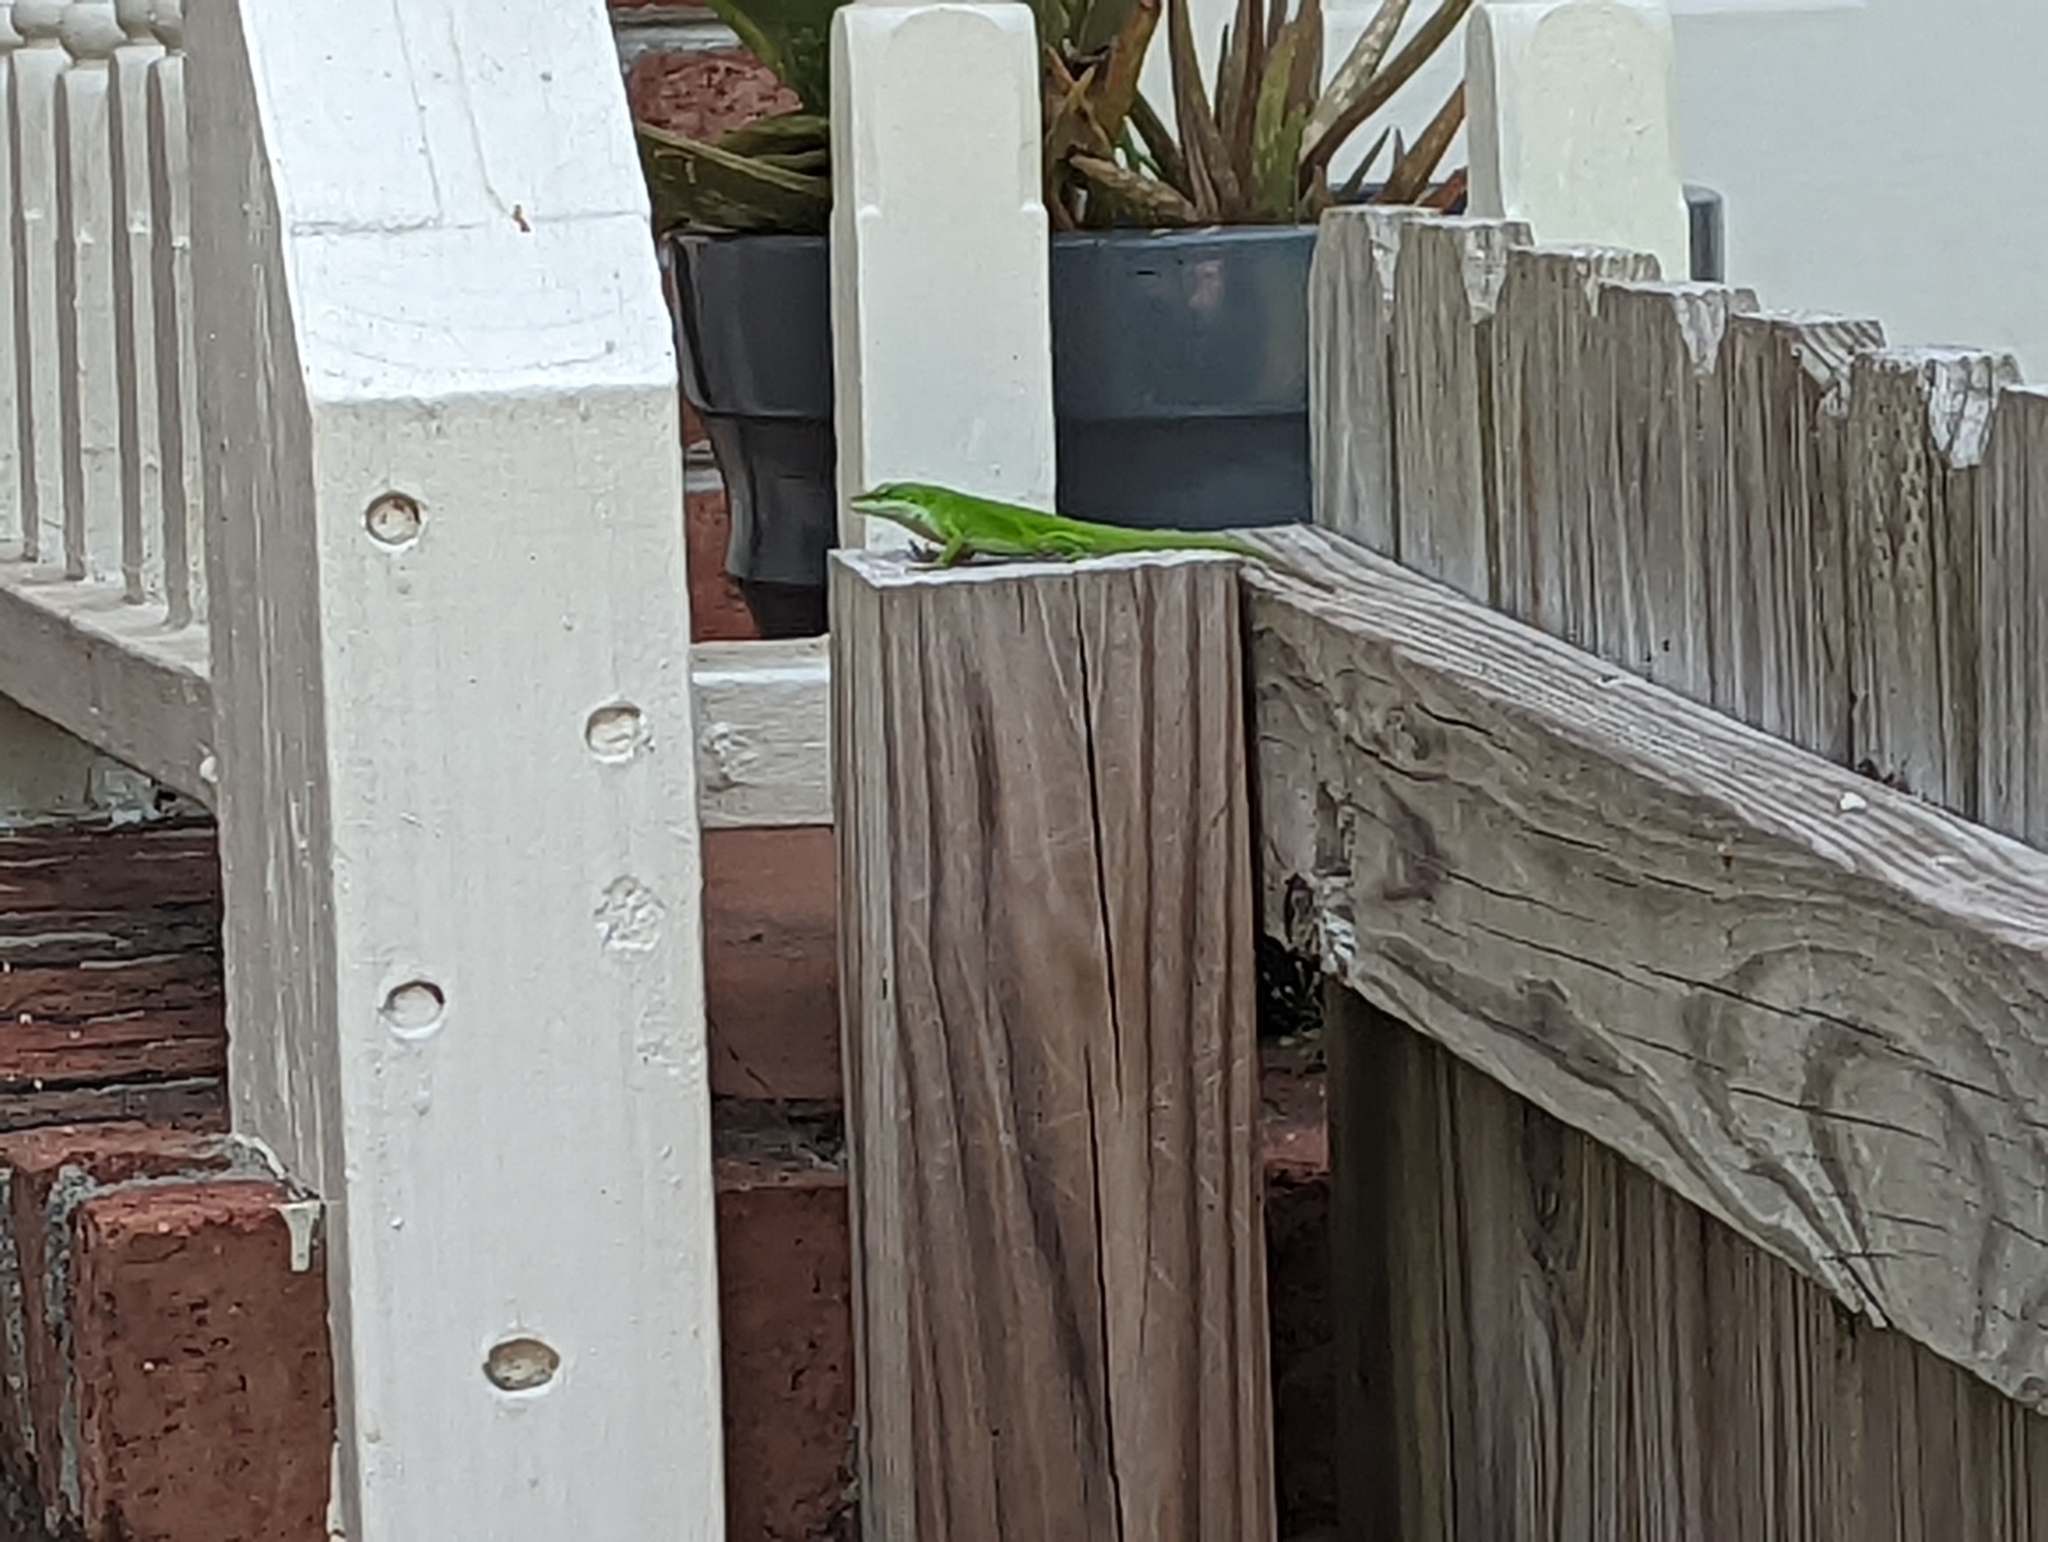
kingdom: Animalia
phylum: Chordata
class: Squamata
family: Dactyloidae
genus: Anolis
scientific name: Anolis carolinensis
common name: Green anole
